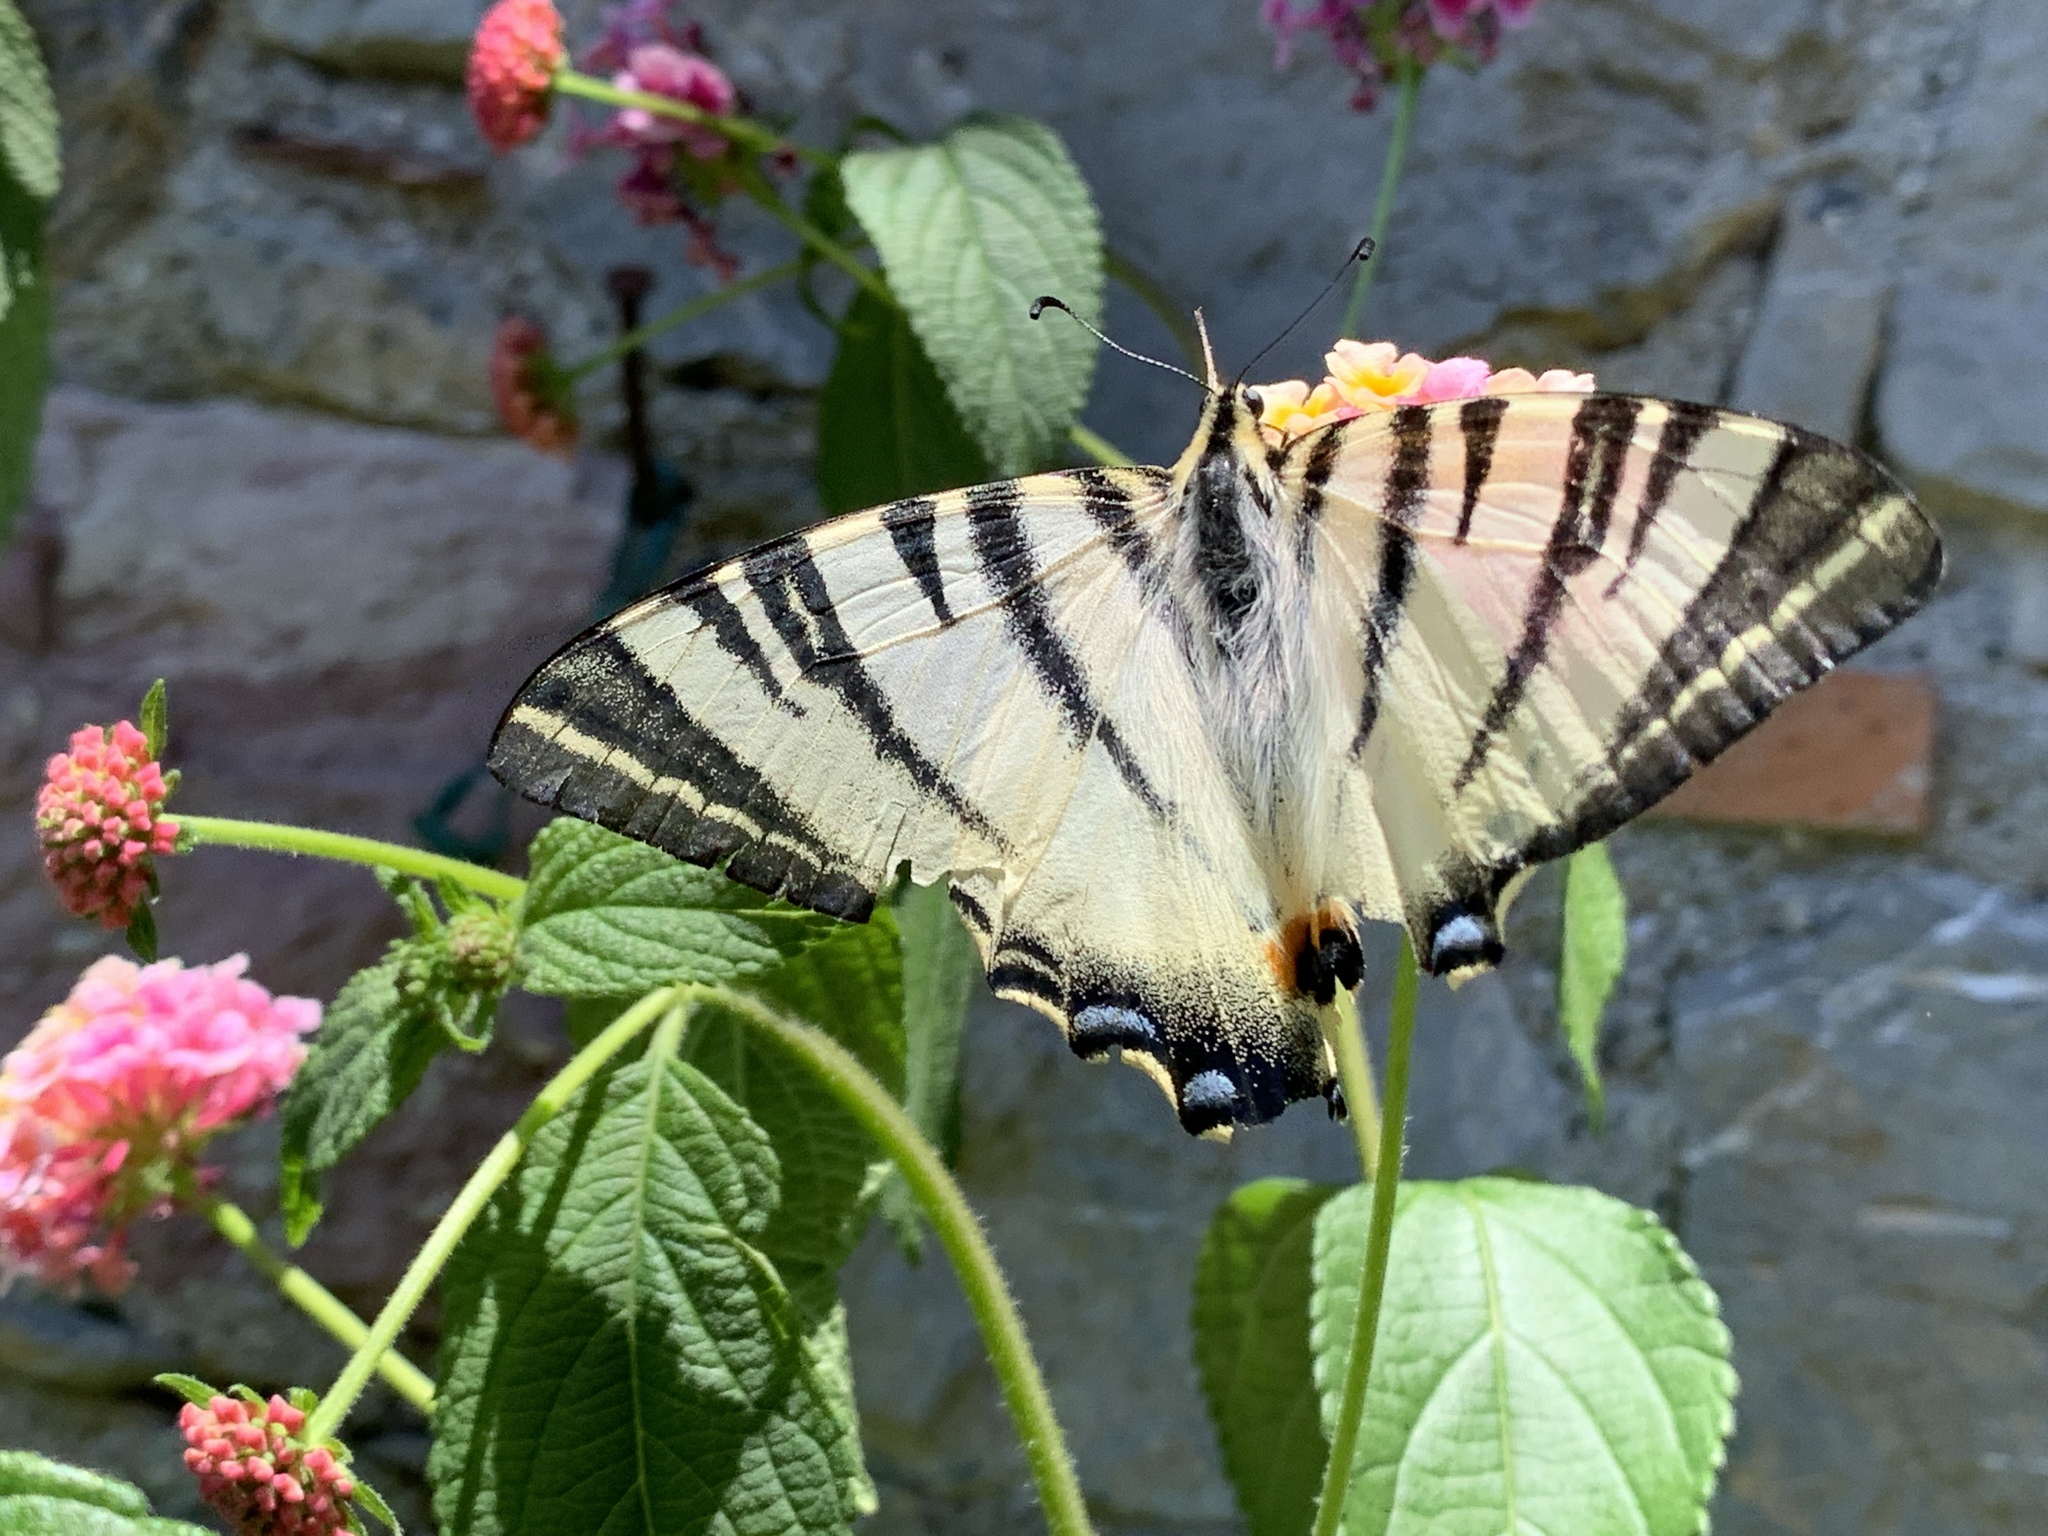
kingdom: Animalia
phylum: Arthropoda
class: Insecta
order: Lepidoptera
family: Papilionidae
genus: Iphiclides
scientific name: Iphiclides podalirius
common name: Scarce swallowtail
